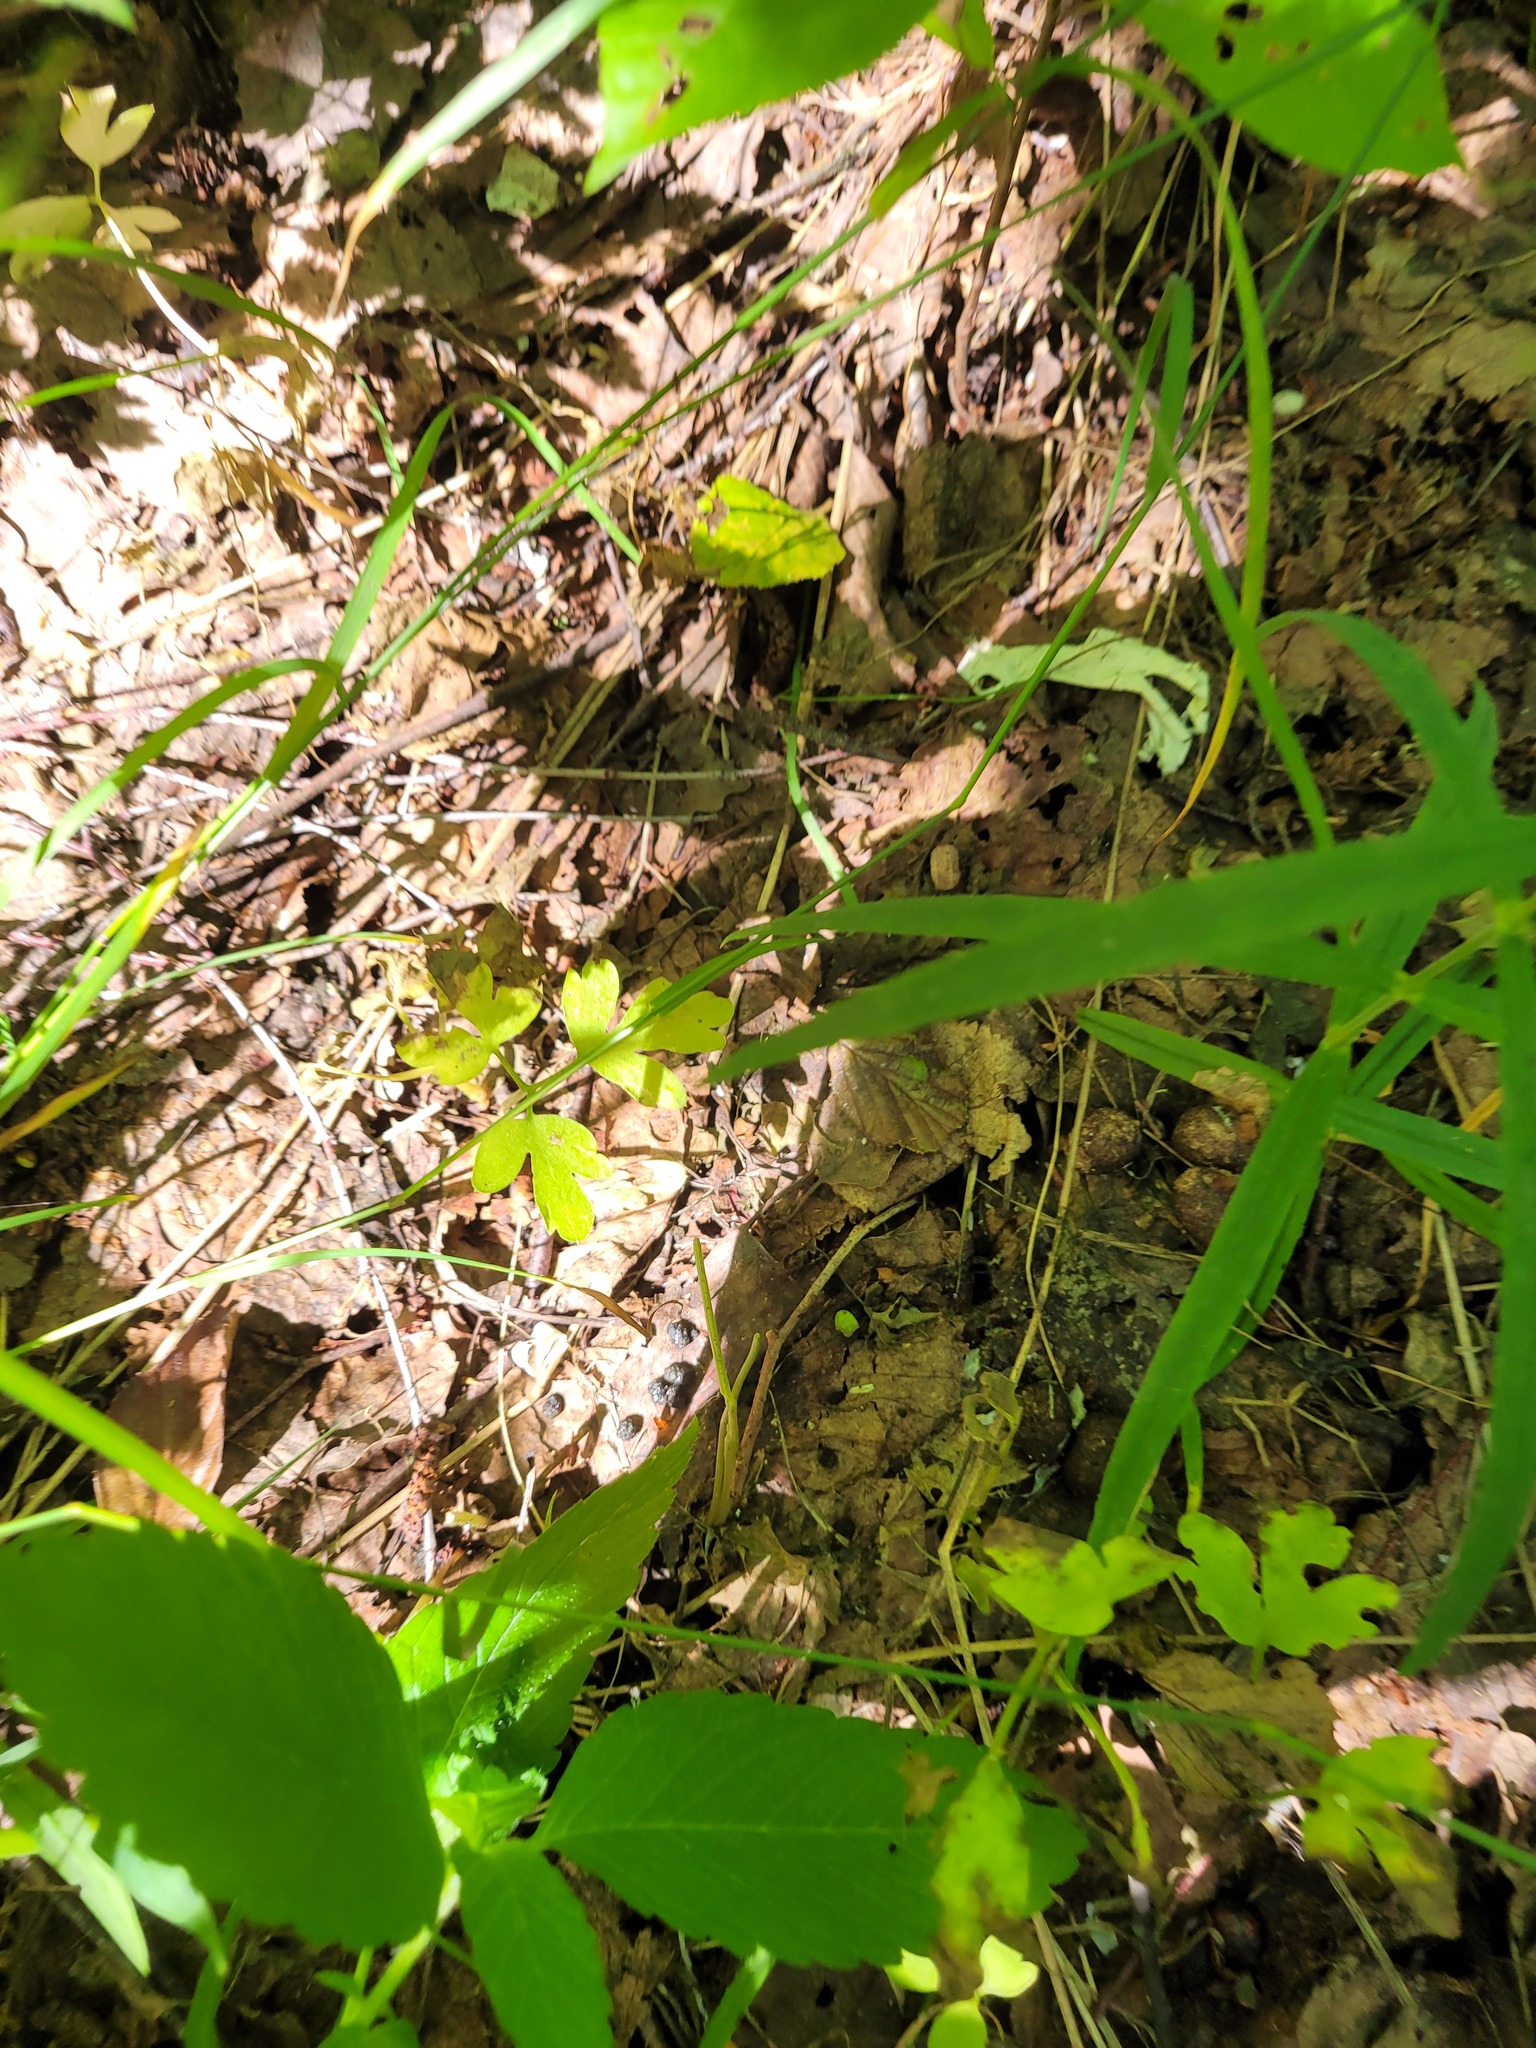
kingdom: Plantae
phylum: Tracheophyta
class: Magnoliopsida
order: Dipsacales
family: Viburnaceae
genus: Adoxa
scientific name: Adoxa moschatellina
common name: Moschatel
